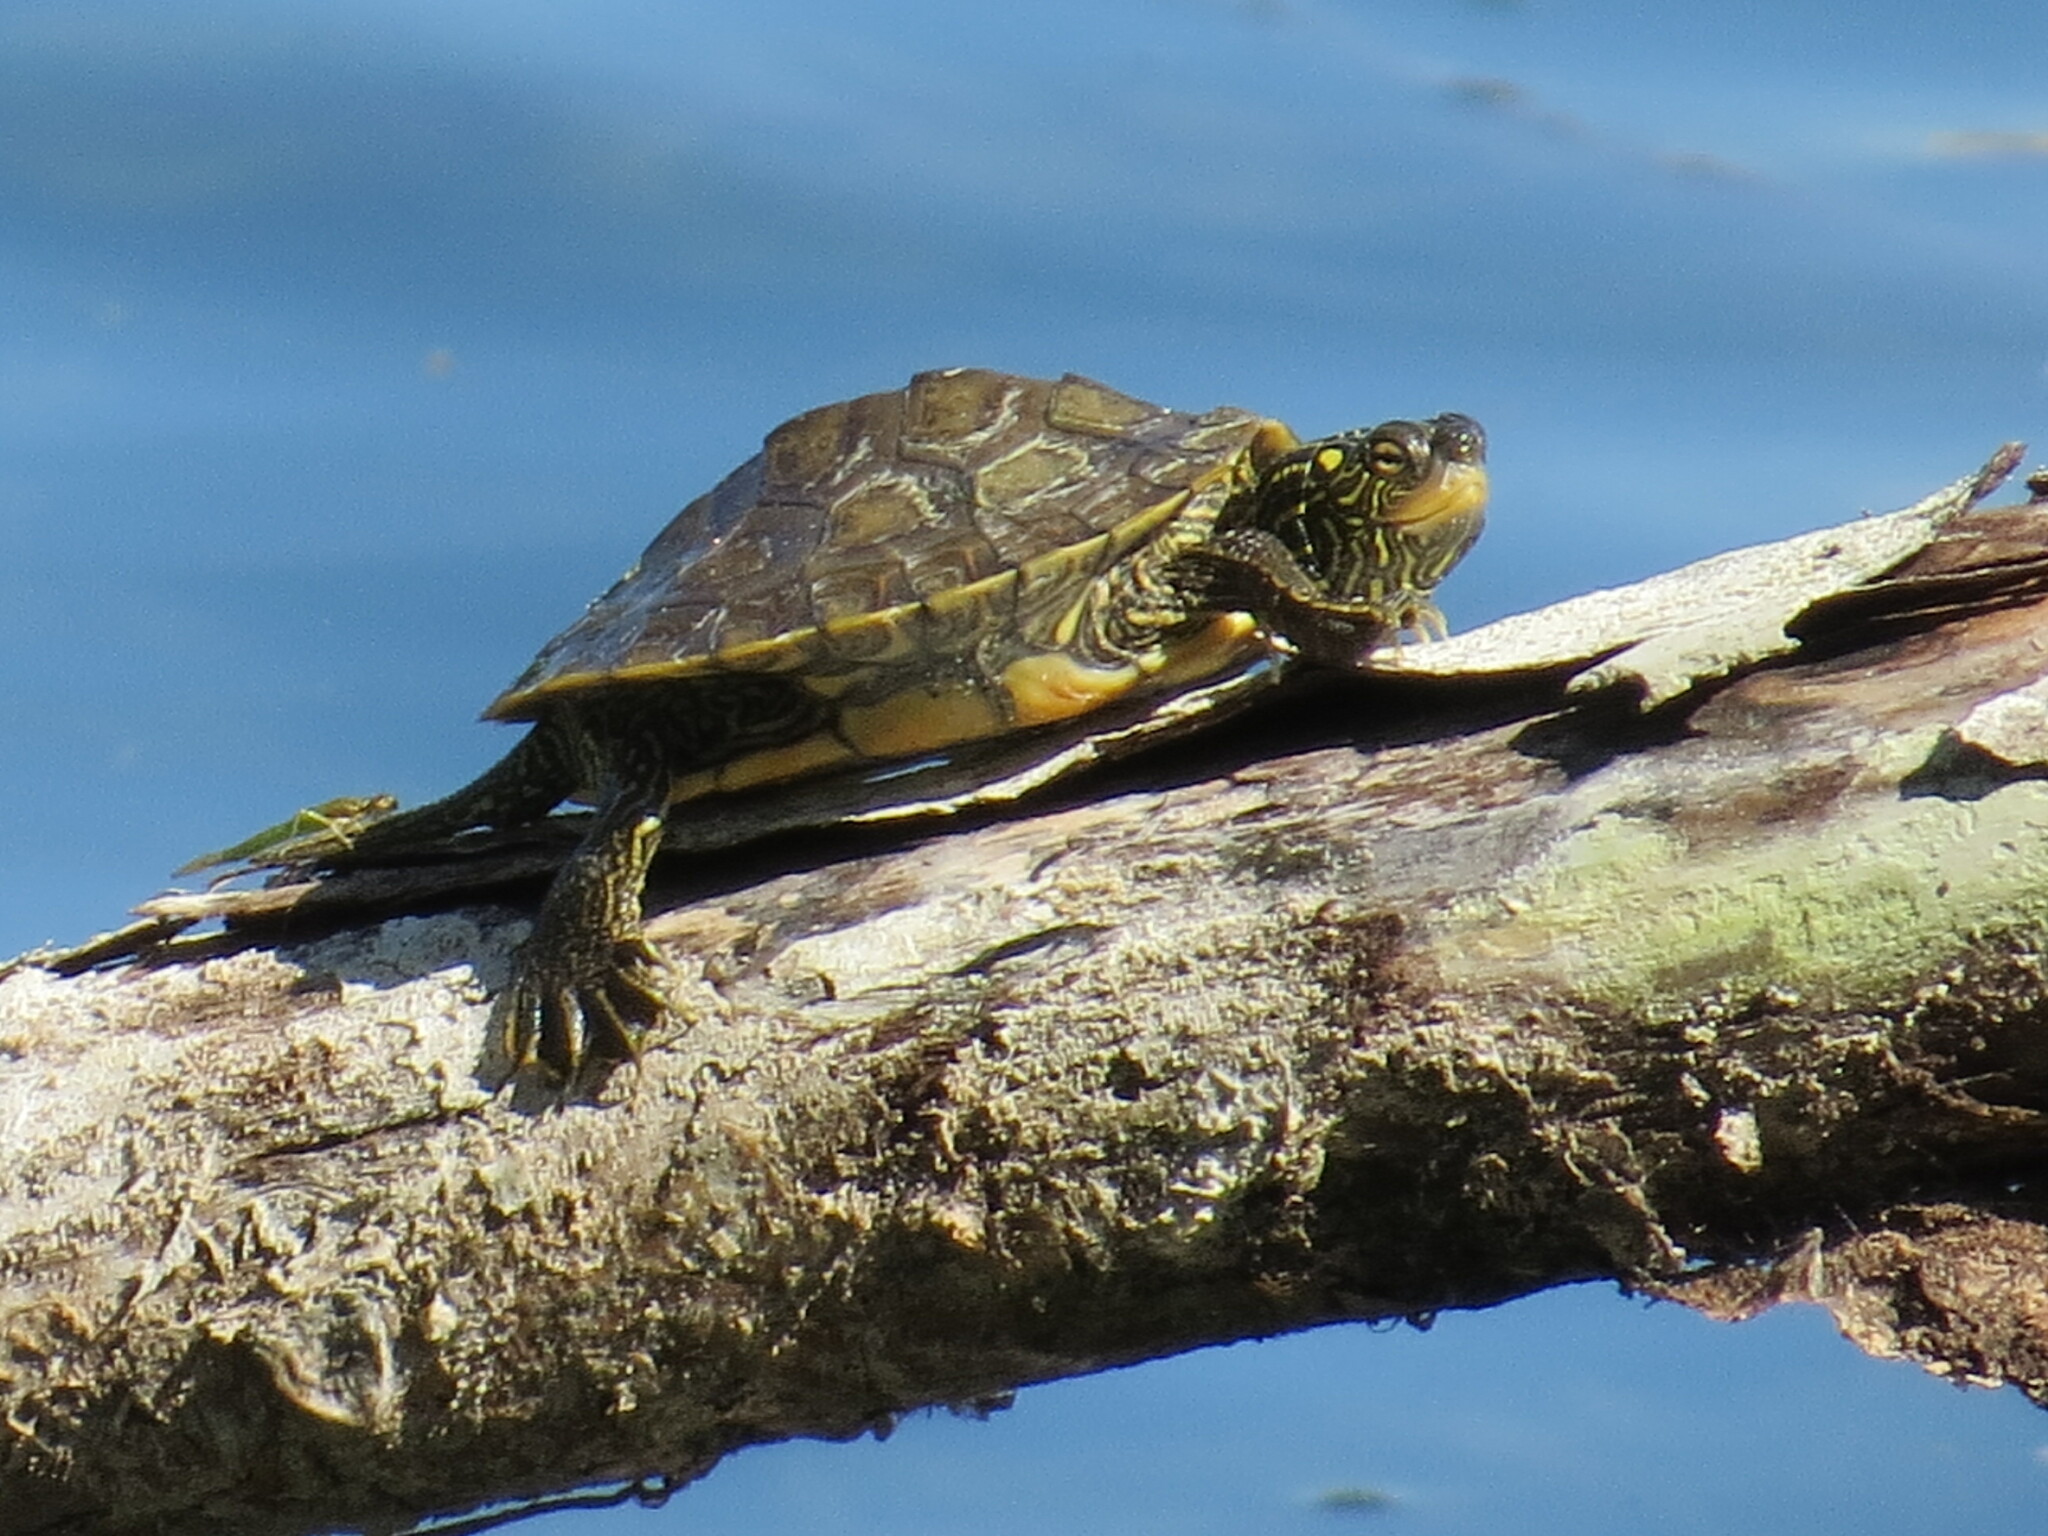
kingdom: Animalia
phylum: Chordata
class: Testudines
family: Emydidae
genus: Graptemys
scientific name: Graptemys geographica
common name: Common map turtle
